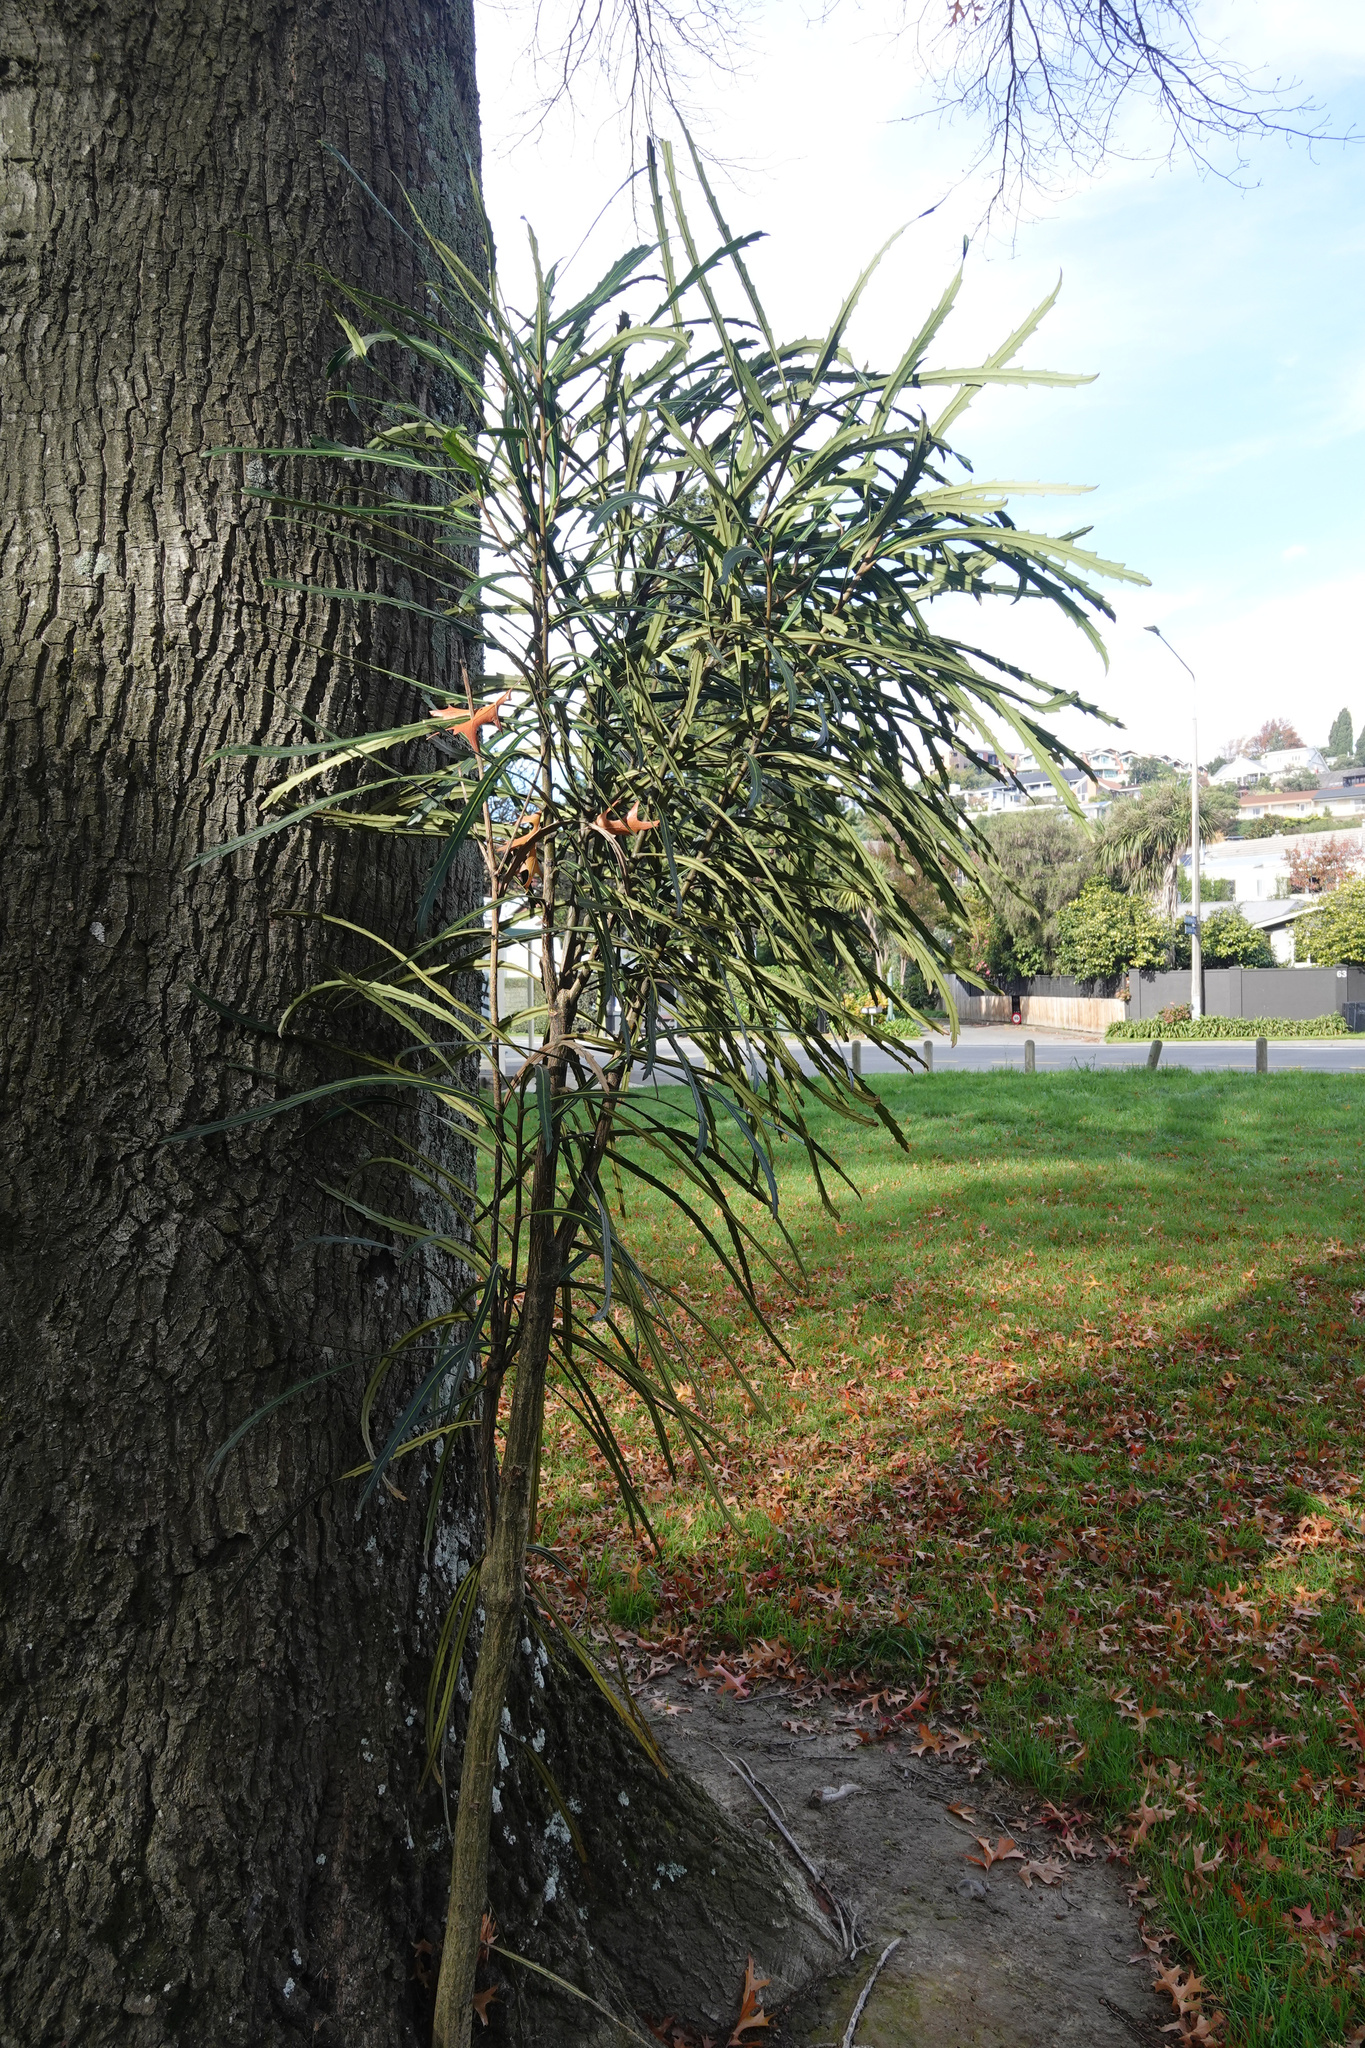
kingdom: Plantae
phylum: Tracheophyta
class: Magnoliopsida
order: Apiales
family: Araliaceae
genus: Pseudopanax
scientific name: Pseudopanax crassifolius
